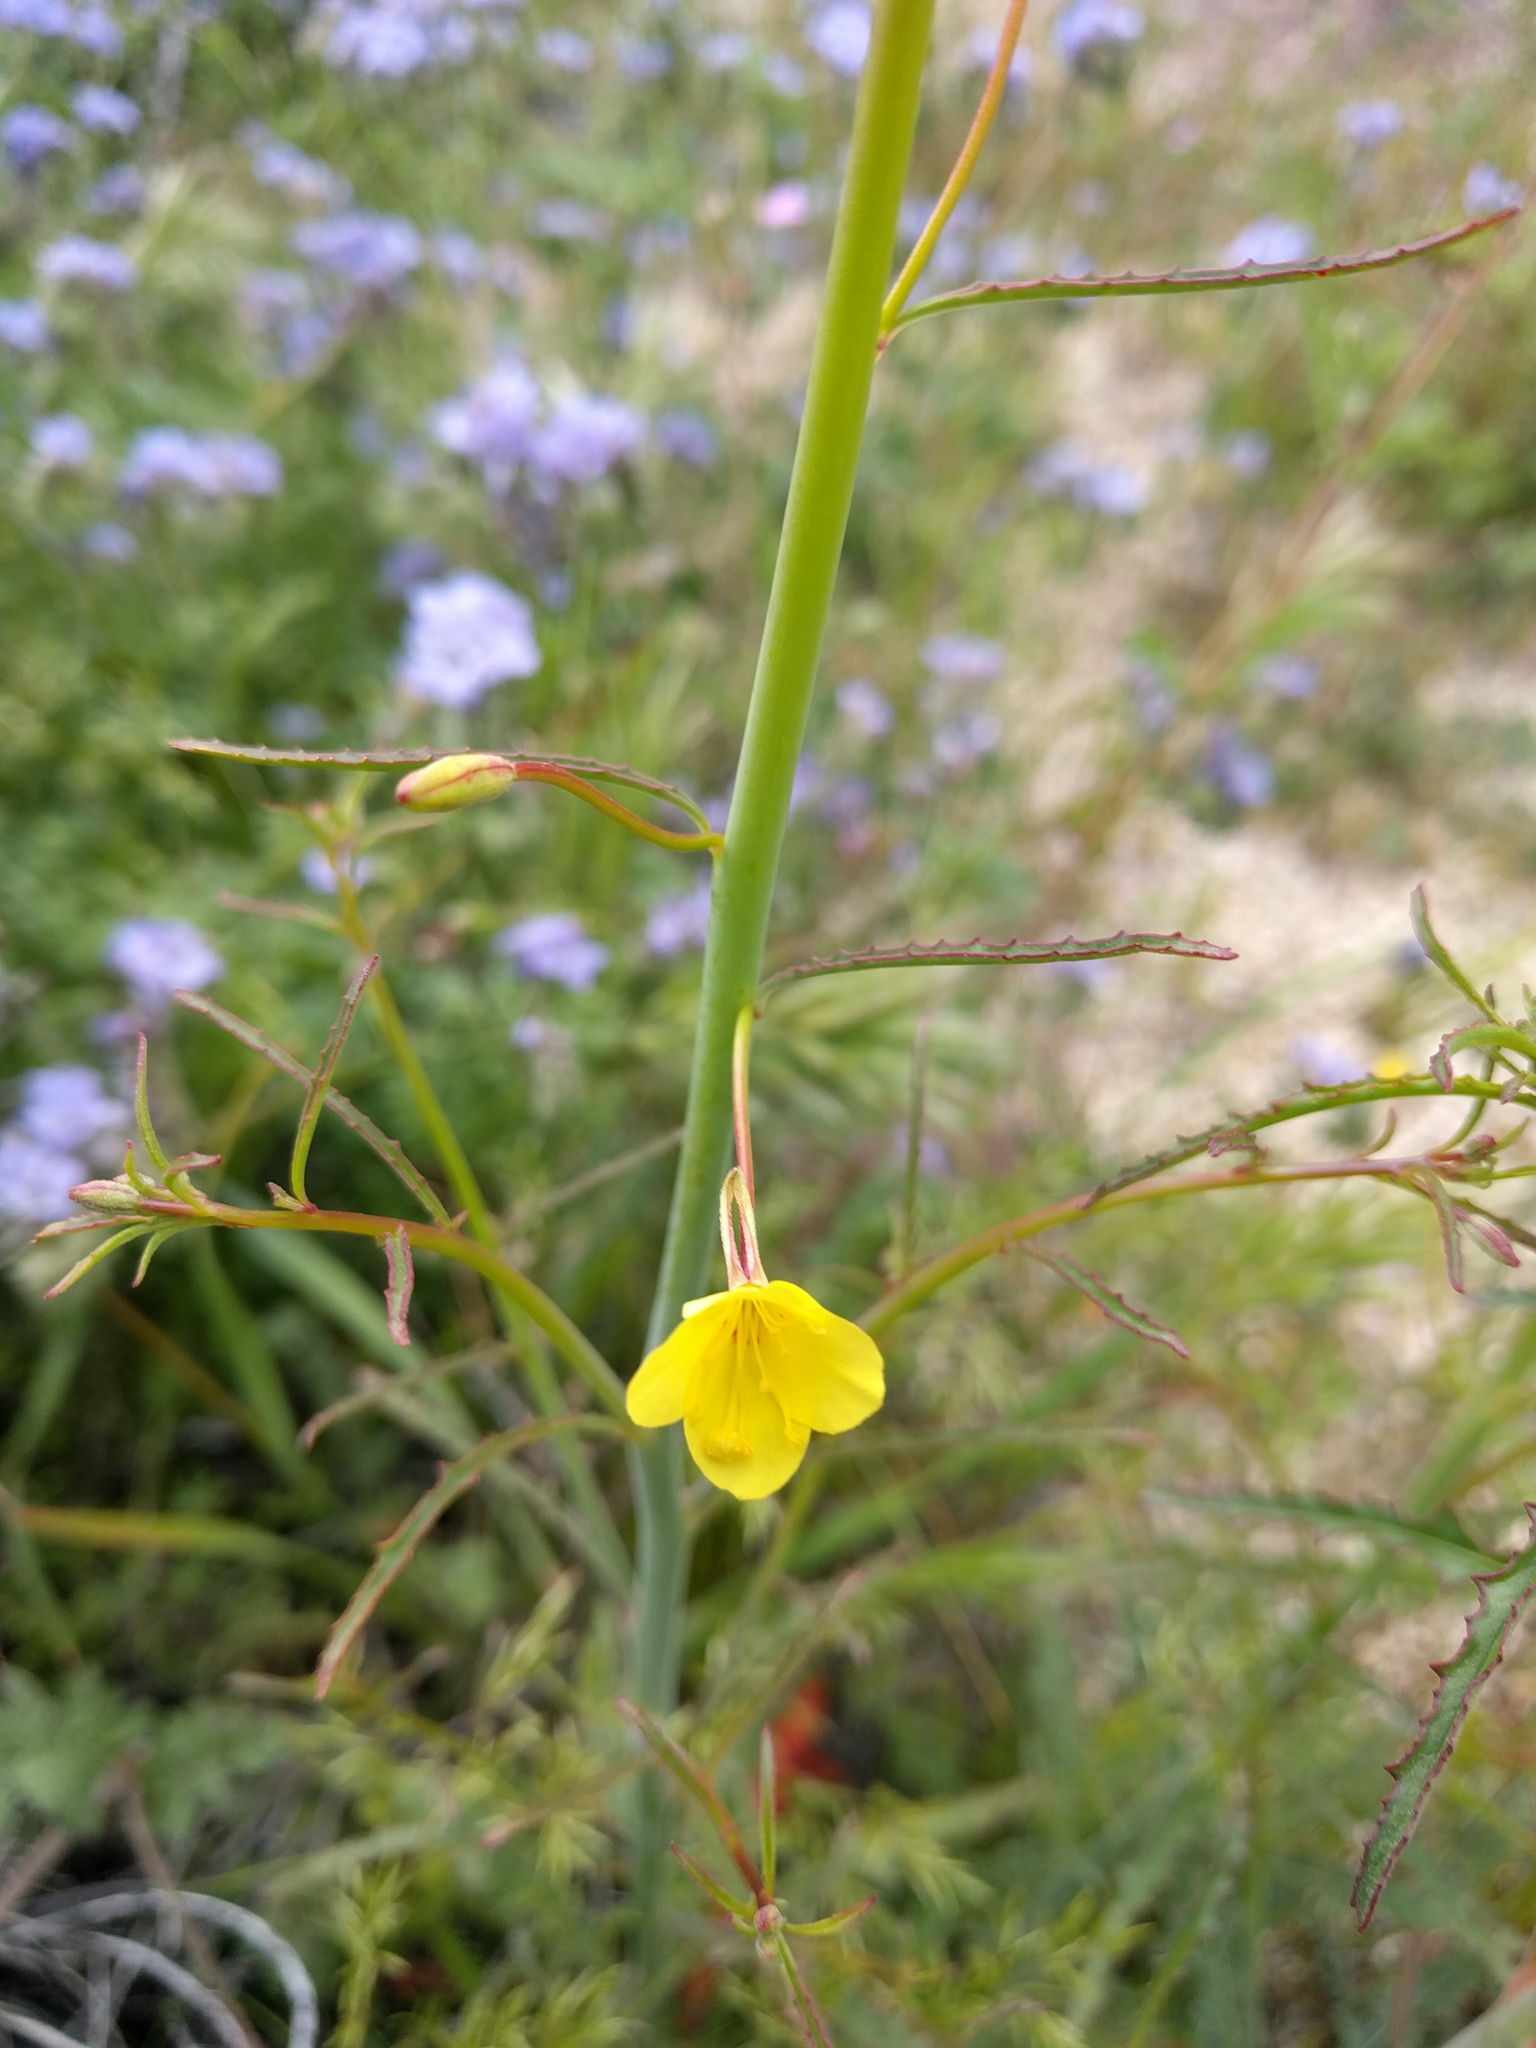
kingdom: Plantae
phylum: Tracheophyta
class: Magnoliopsida
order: Myrtales
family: Onagraceae
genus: Eulobus
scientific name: Eulobus californicus
